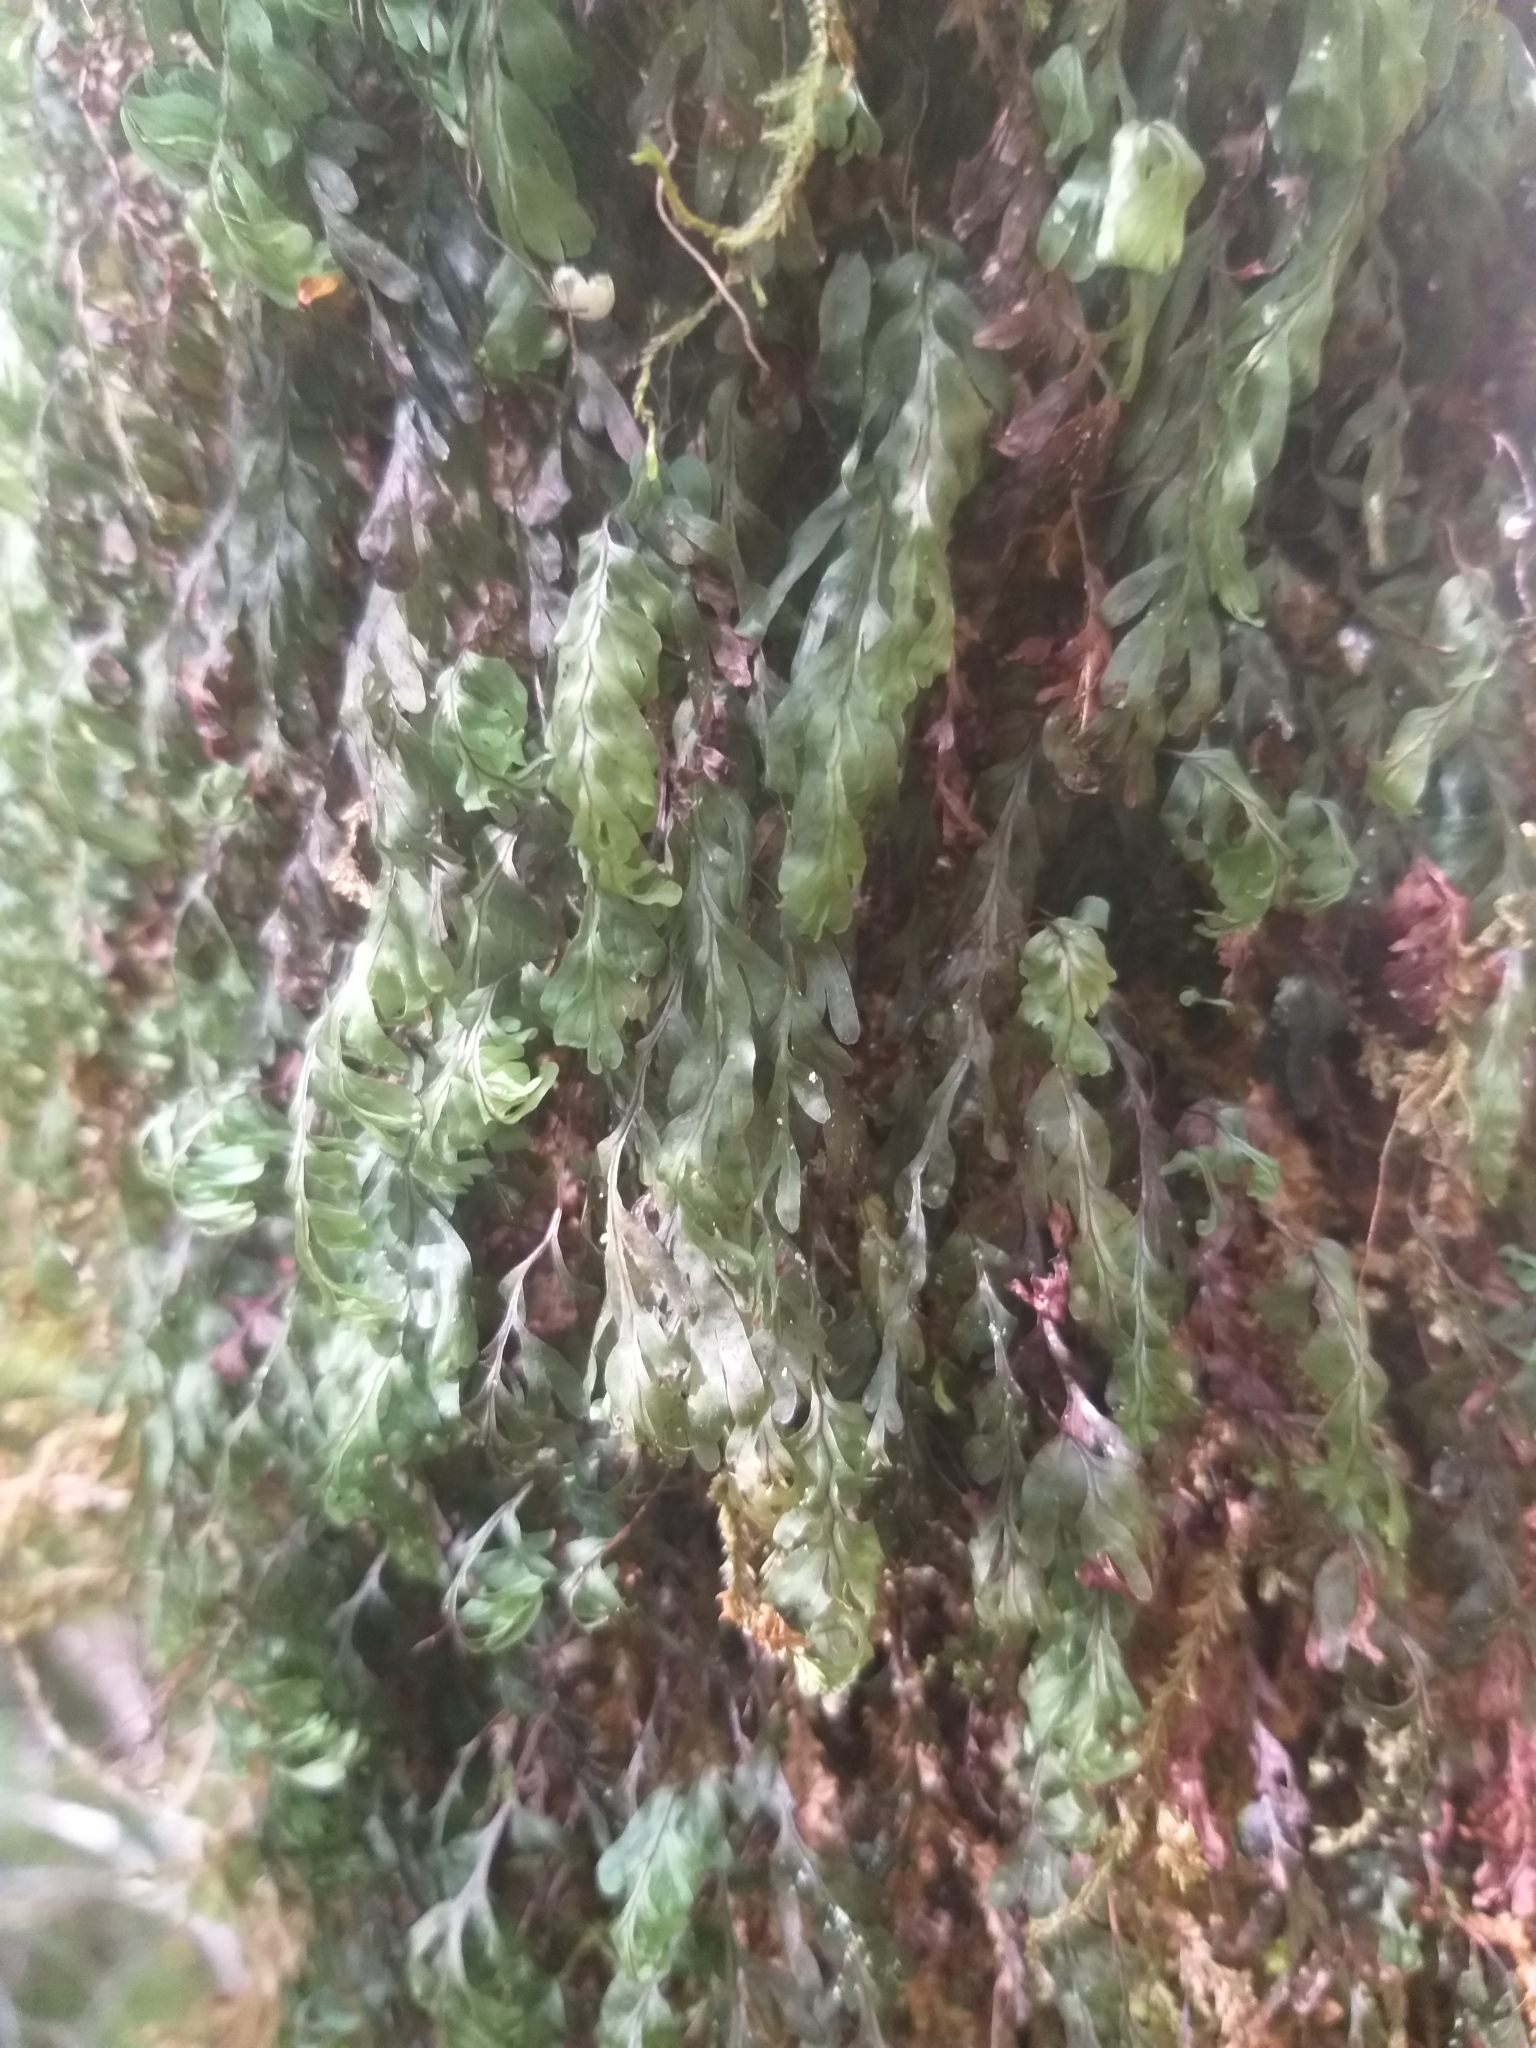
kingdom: Plantae
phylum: Tracheophyta
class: Polypodiopsida
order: Hymenophyllales
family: Hymenophyllaceae
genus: Hymenophyllum
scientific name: Hymenophyllum rarum
